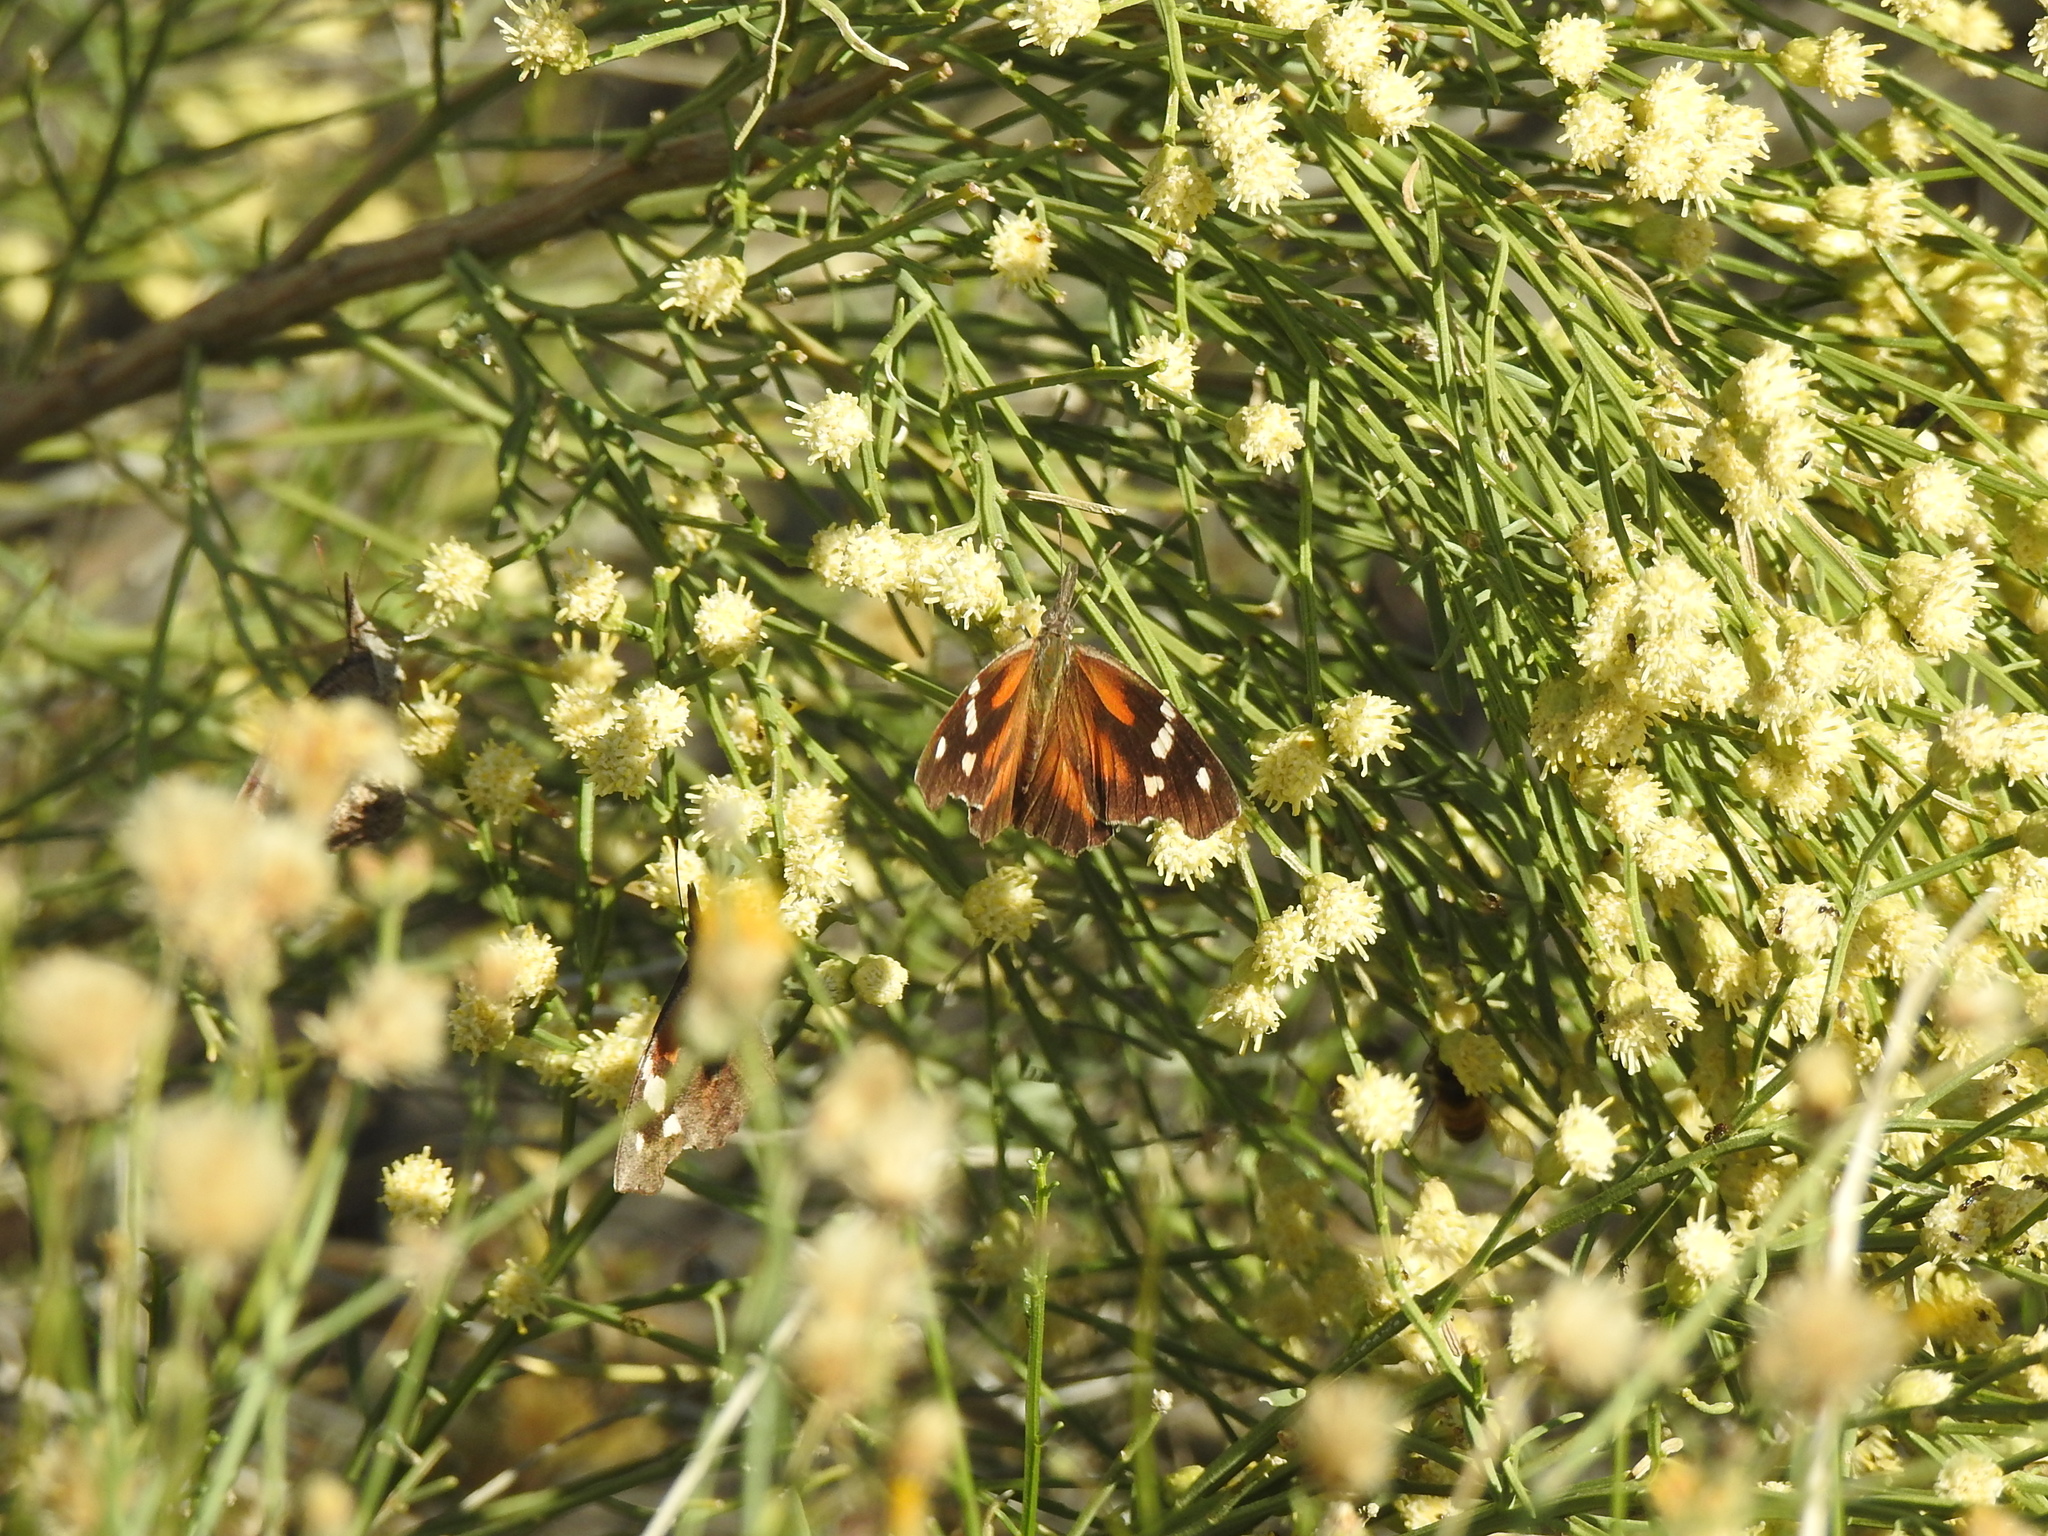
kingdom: Animalia
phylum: Arthropoda
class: Insecta
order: Lepidoptera
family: Nymphalidae
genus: Libytheana
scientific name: Libytheana carinenta
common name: American snout
